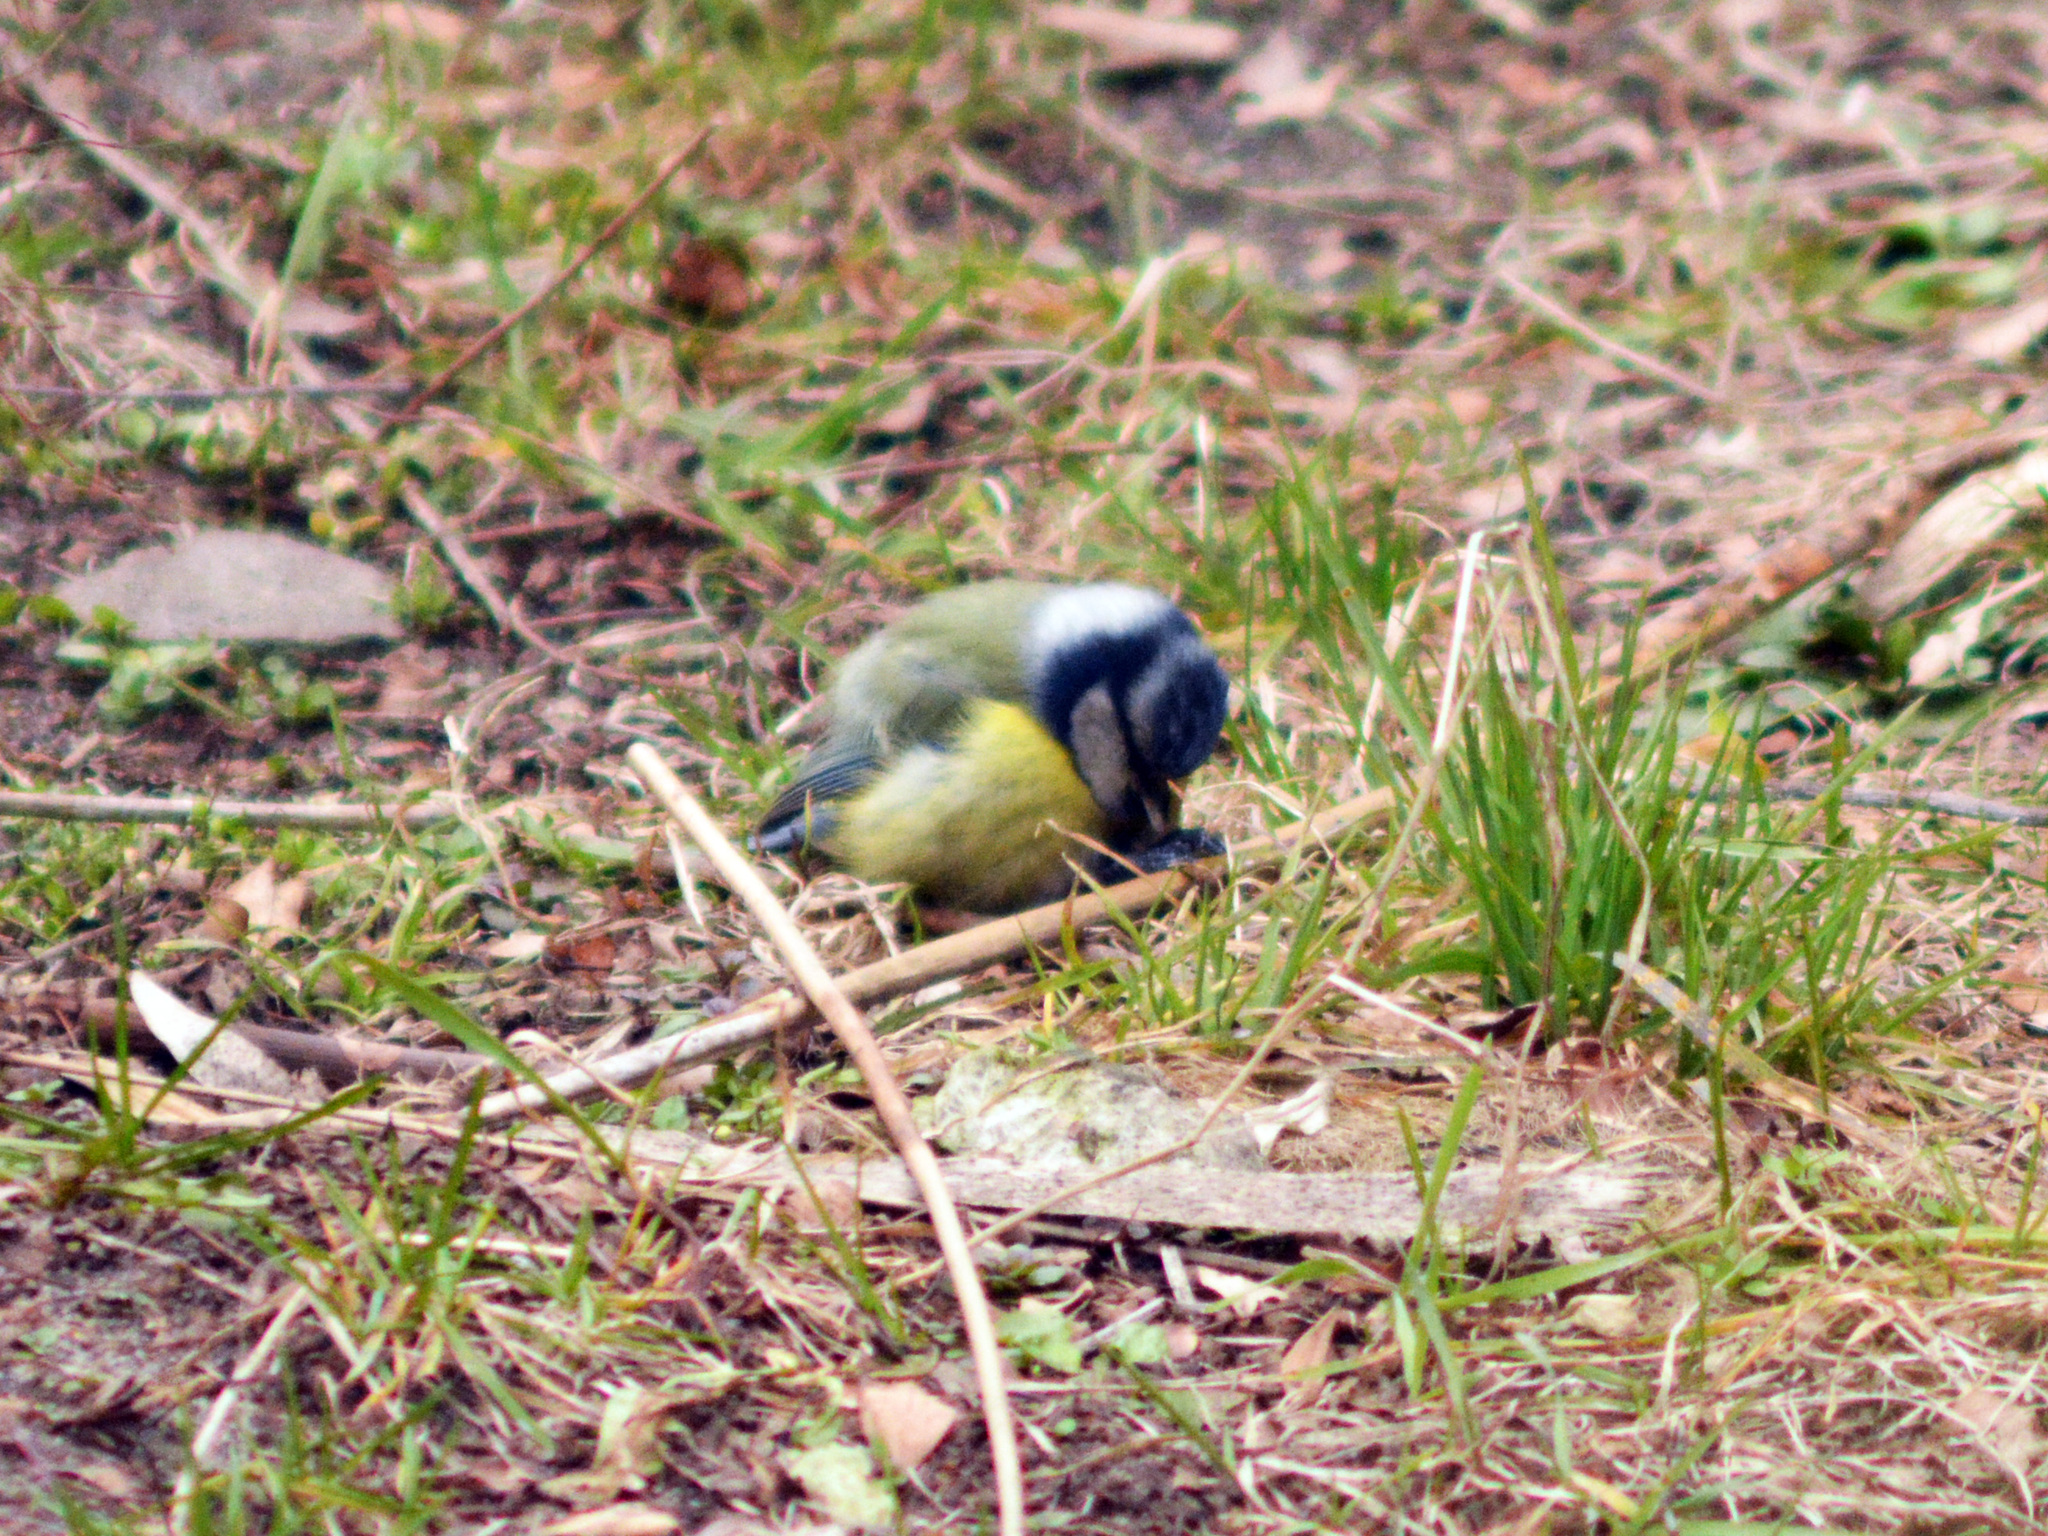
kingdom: Animalia
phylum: Chordata
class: Aves
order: Passeriformes
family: Paridae
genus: Cyanistes
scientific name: Cyanistes caeruleus
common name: Eurasian blue tit
